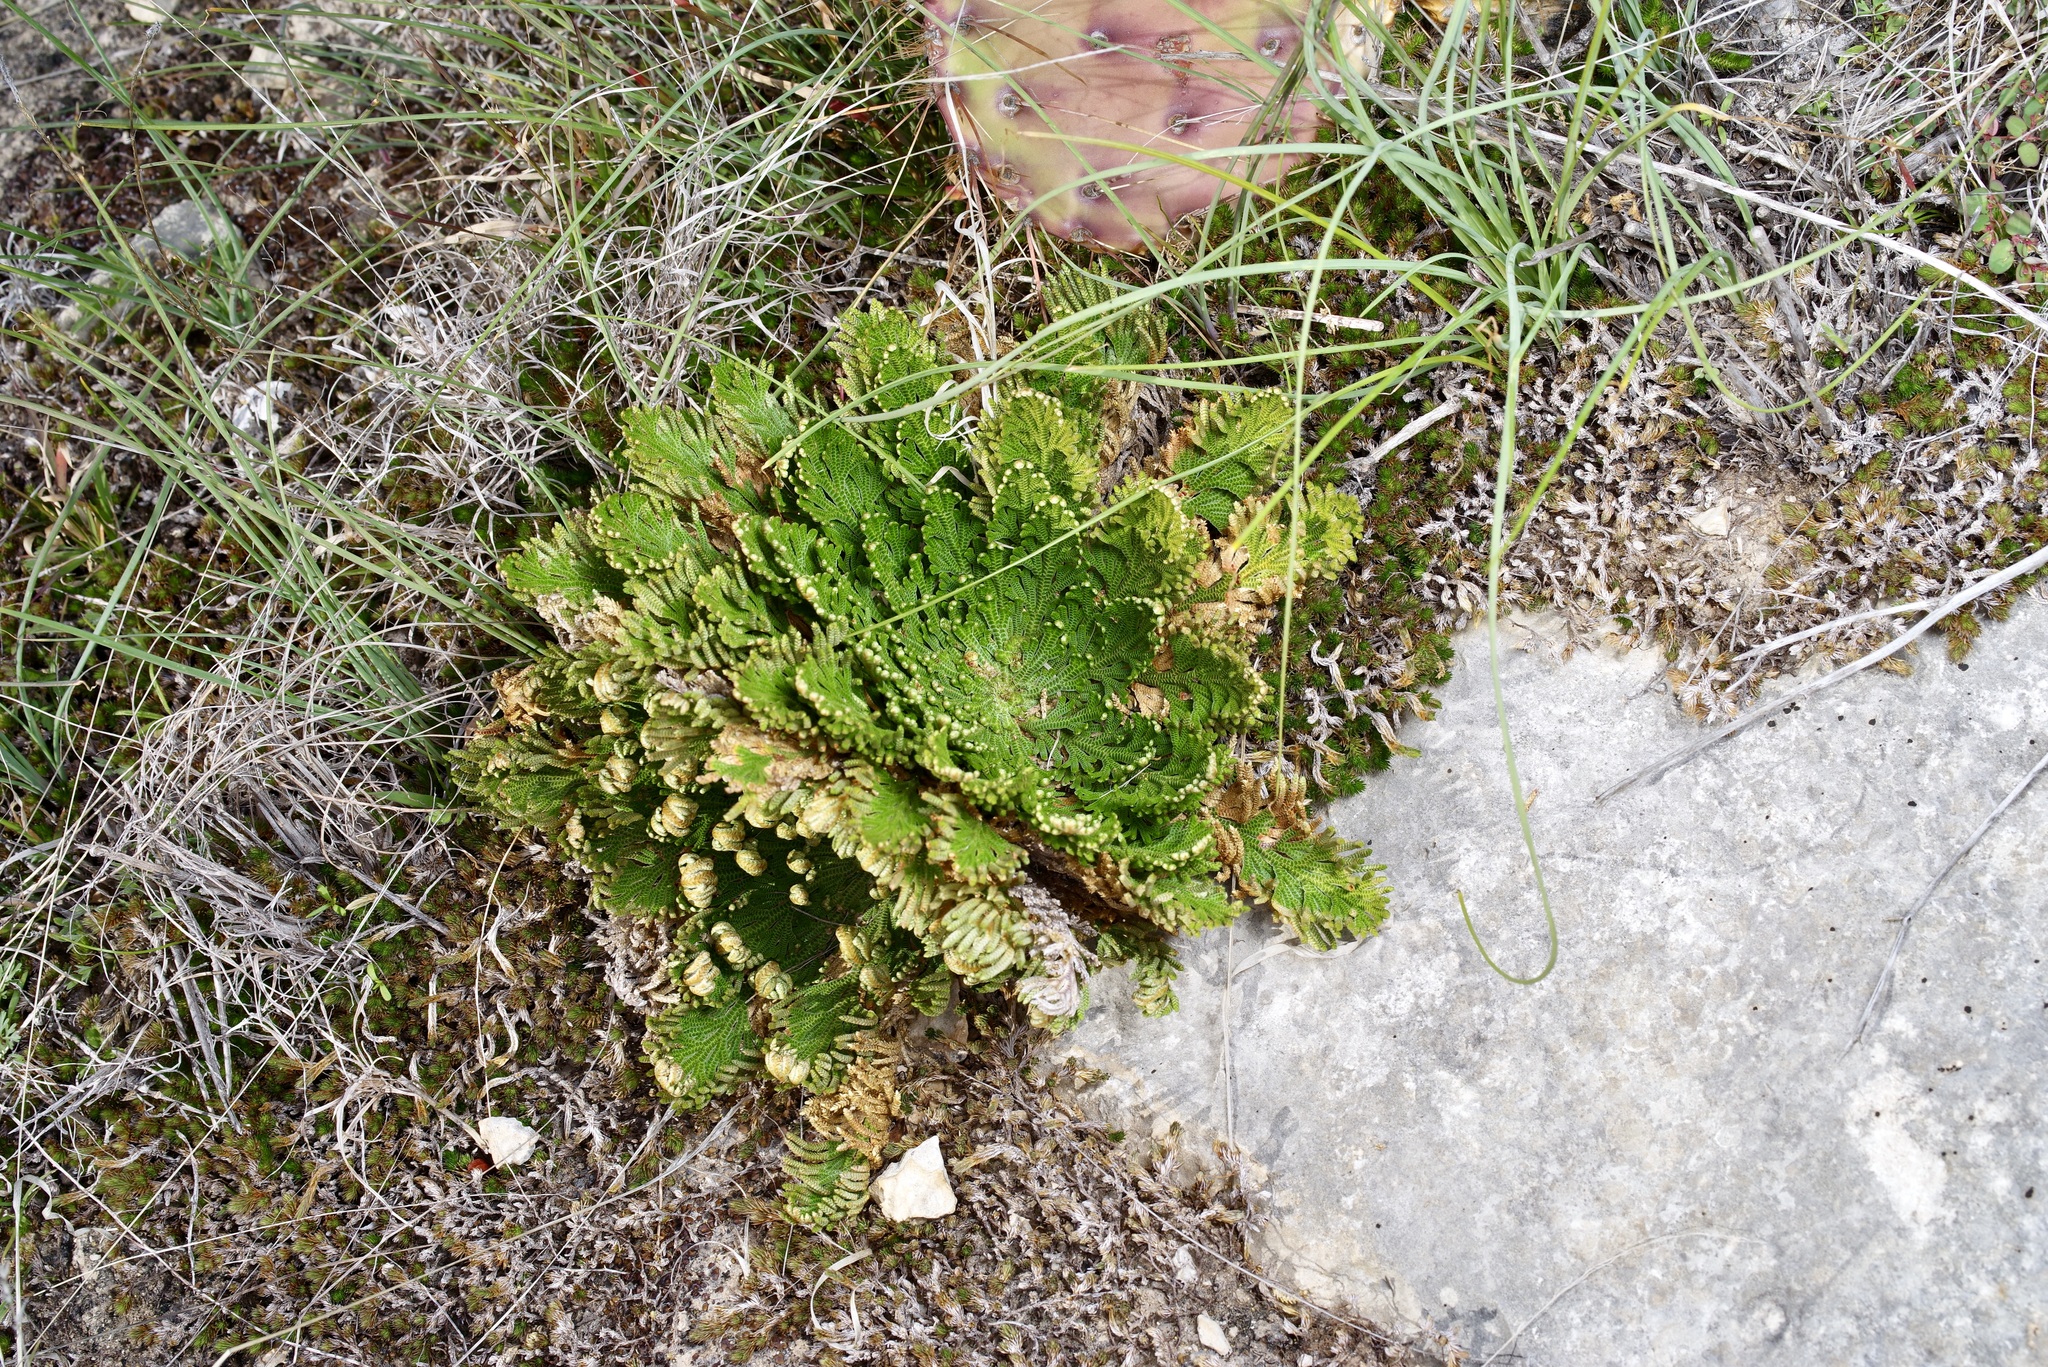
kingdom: Plantae
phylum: Tracheophyta
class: Lycopodiopsida
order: Selaginellales
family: Selaginellaceae
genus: Selaginella
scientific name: Selaginella lepidophylla
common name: Rose-of-jericho
